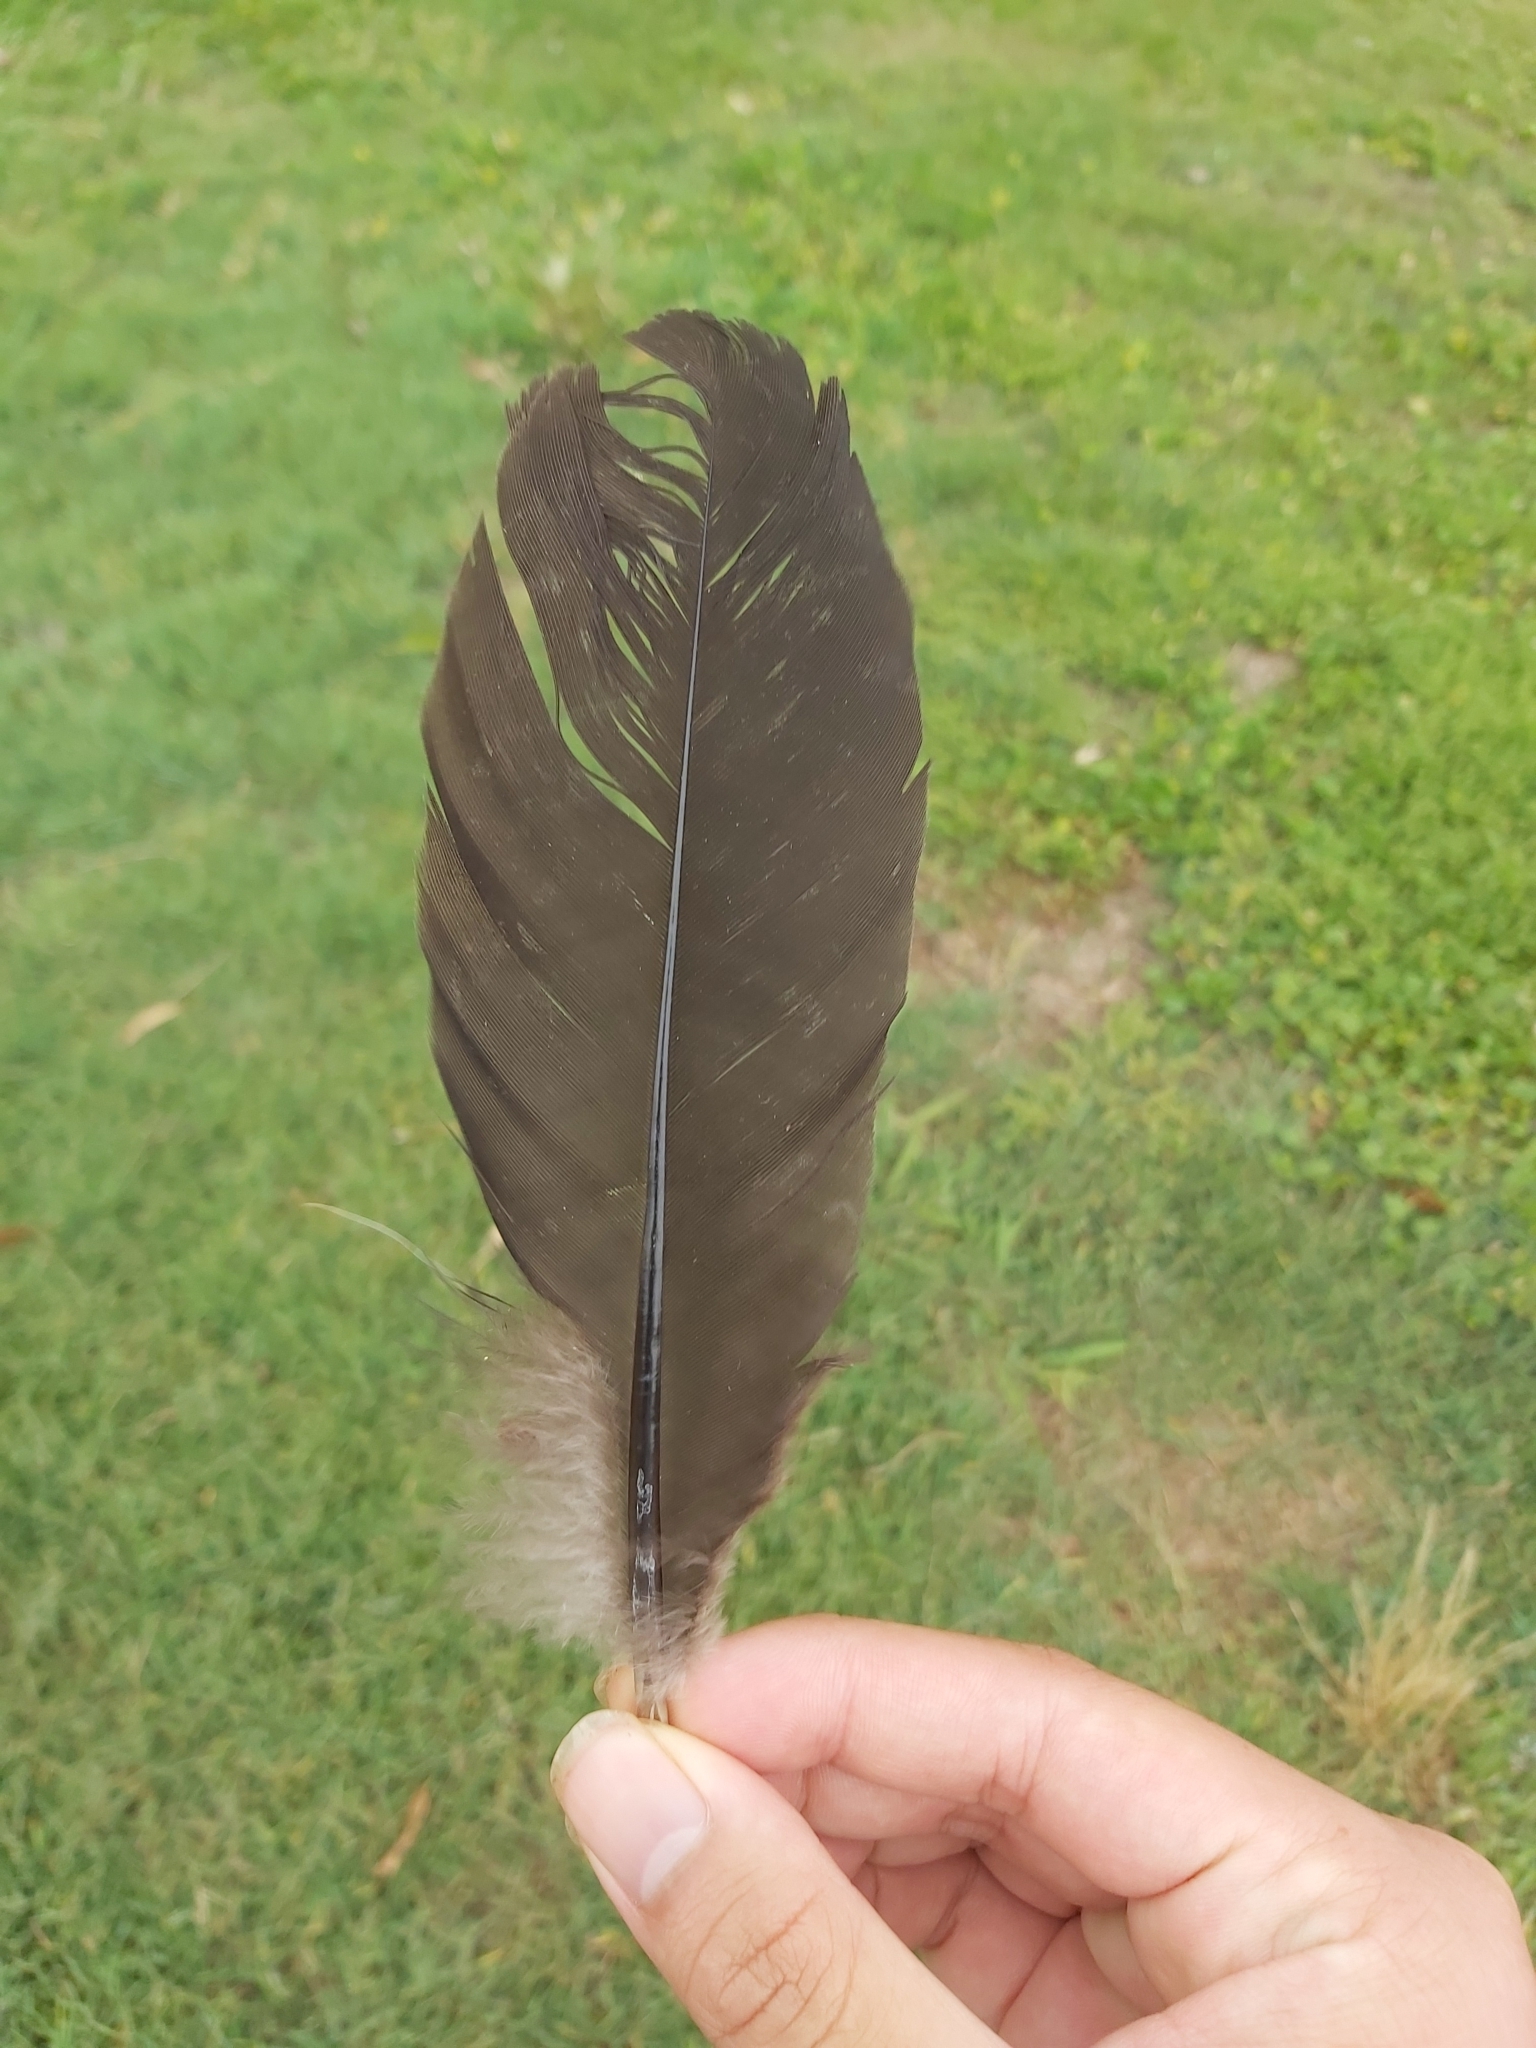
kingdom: Animalia
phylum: Chordata
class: Aves
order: Galliformes
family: Megapodiidae
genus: Alectura
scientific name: Alectura lathami
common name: Australian brushturkey
